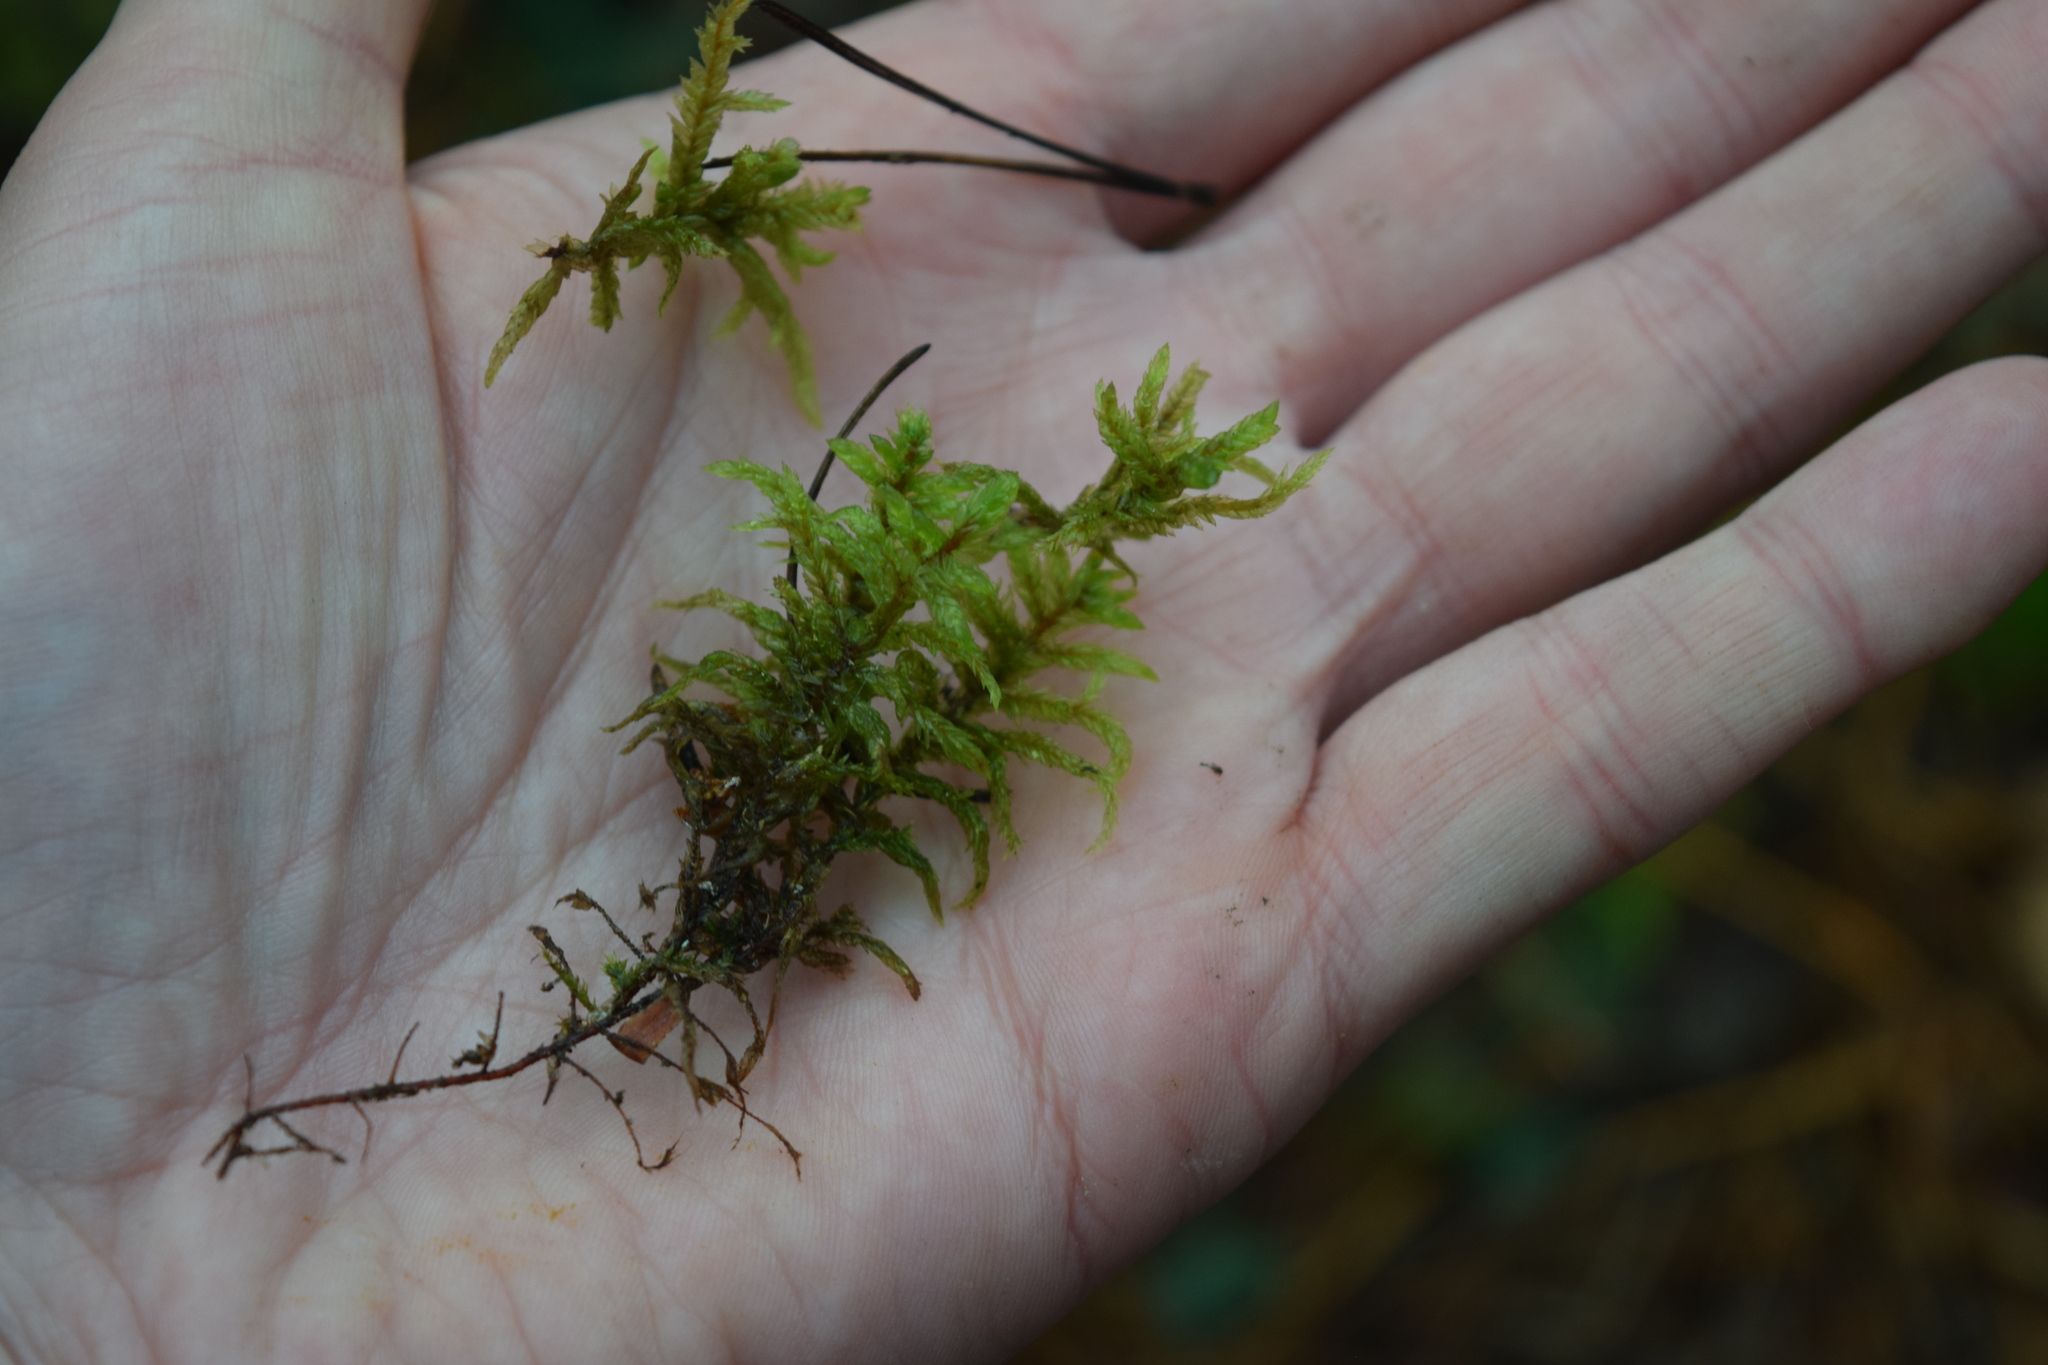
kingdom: Plantae
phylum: Bryophyta
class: Bryopsida
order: Hypnales
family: Hylocomiaceae
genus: Pleurozium
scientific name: Pleurozium schreberi
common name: Red-stemmed feather moss
